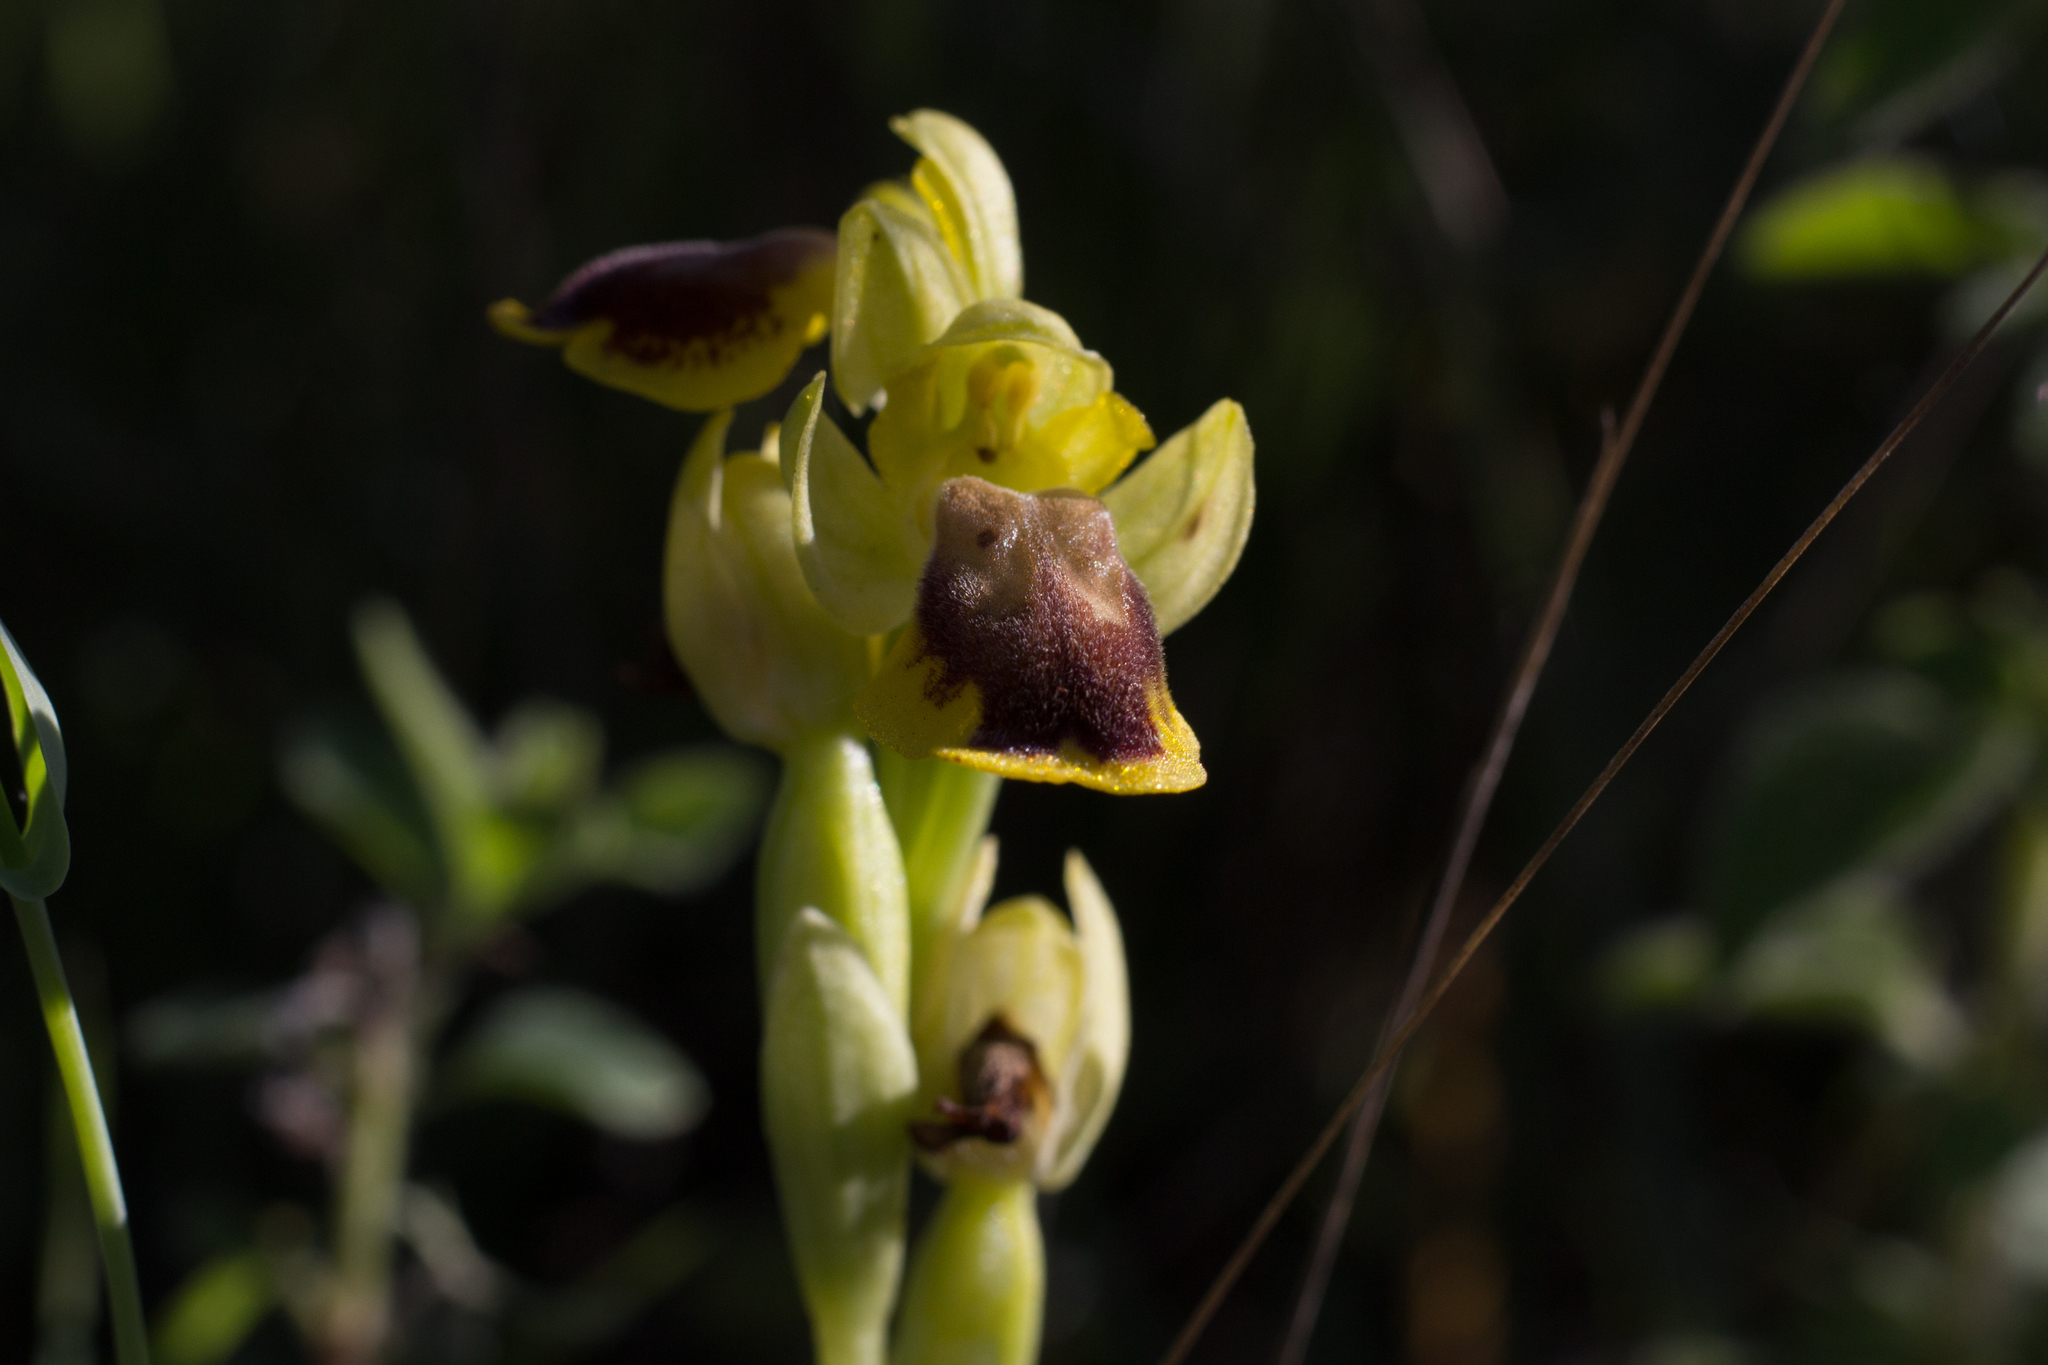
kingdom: Plantae
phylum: Tracheophyta
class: Liliopsida
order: Asparagales
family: Orchidaceae
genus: Ophrys
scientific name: Ophrys lutea
